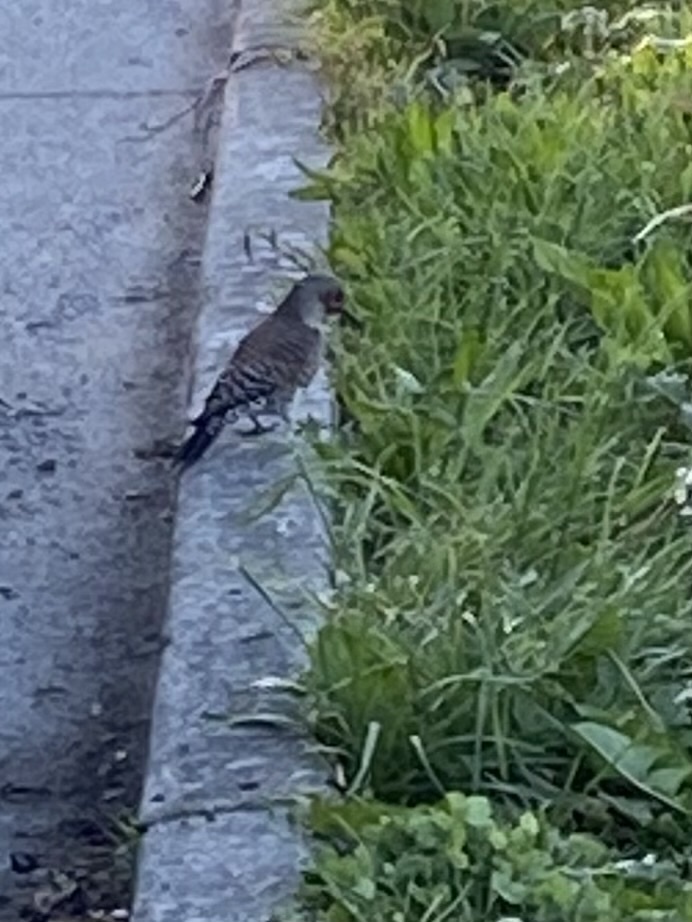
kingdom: Animalia
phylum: Chordata
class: Aves
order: Piciformes
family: Picidae
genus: Colaptes
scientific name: Colaptes auratus
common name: Northern flicker
